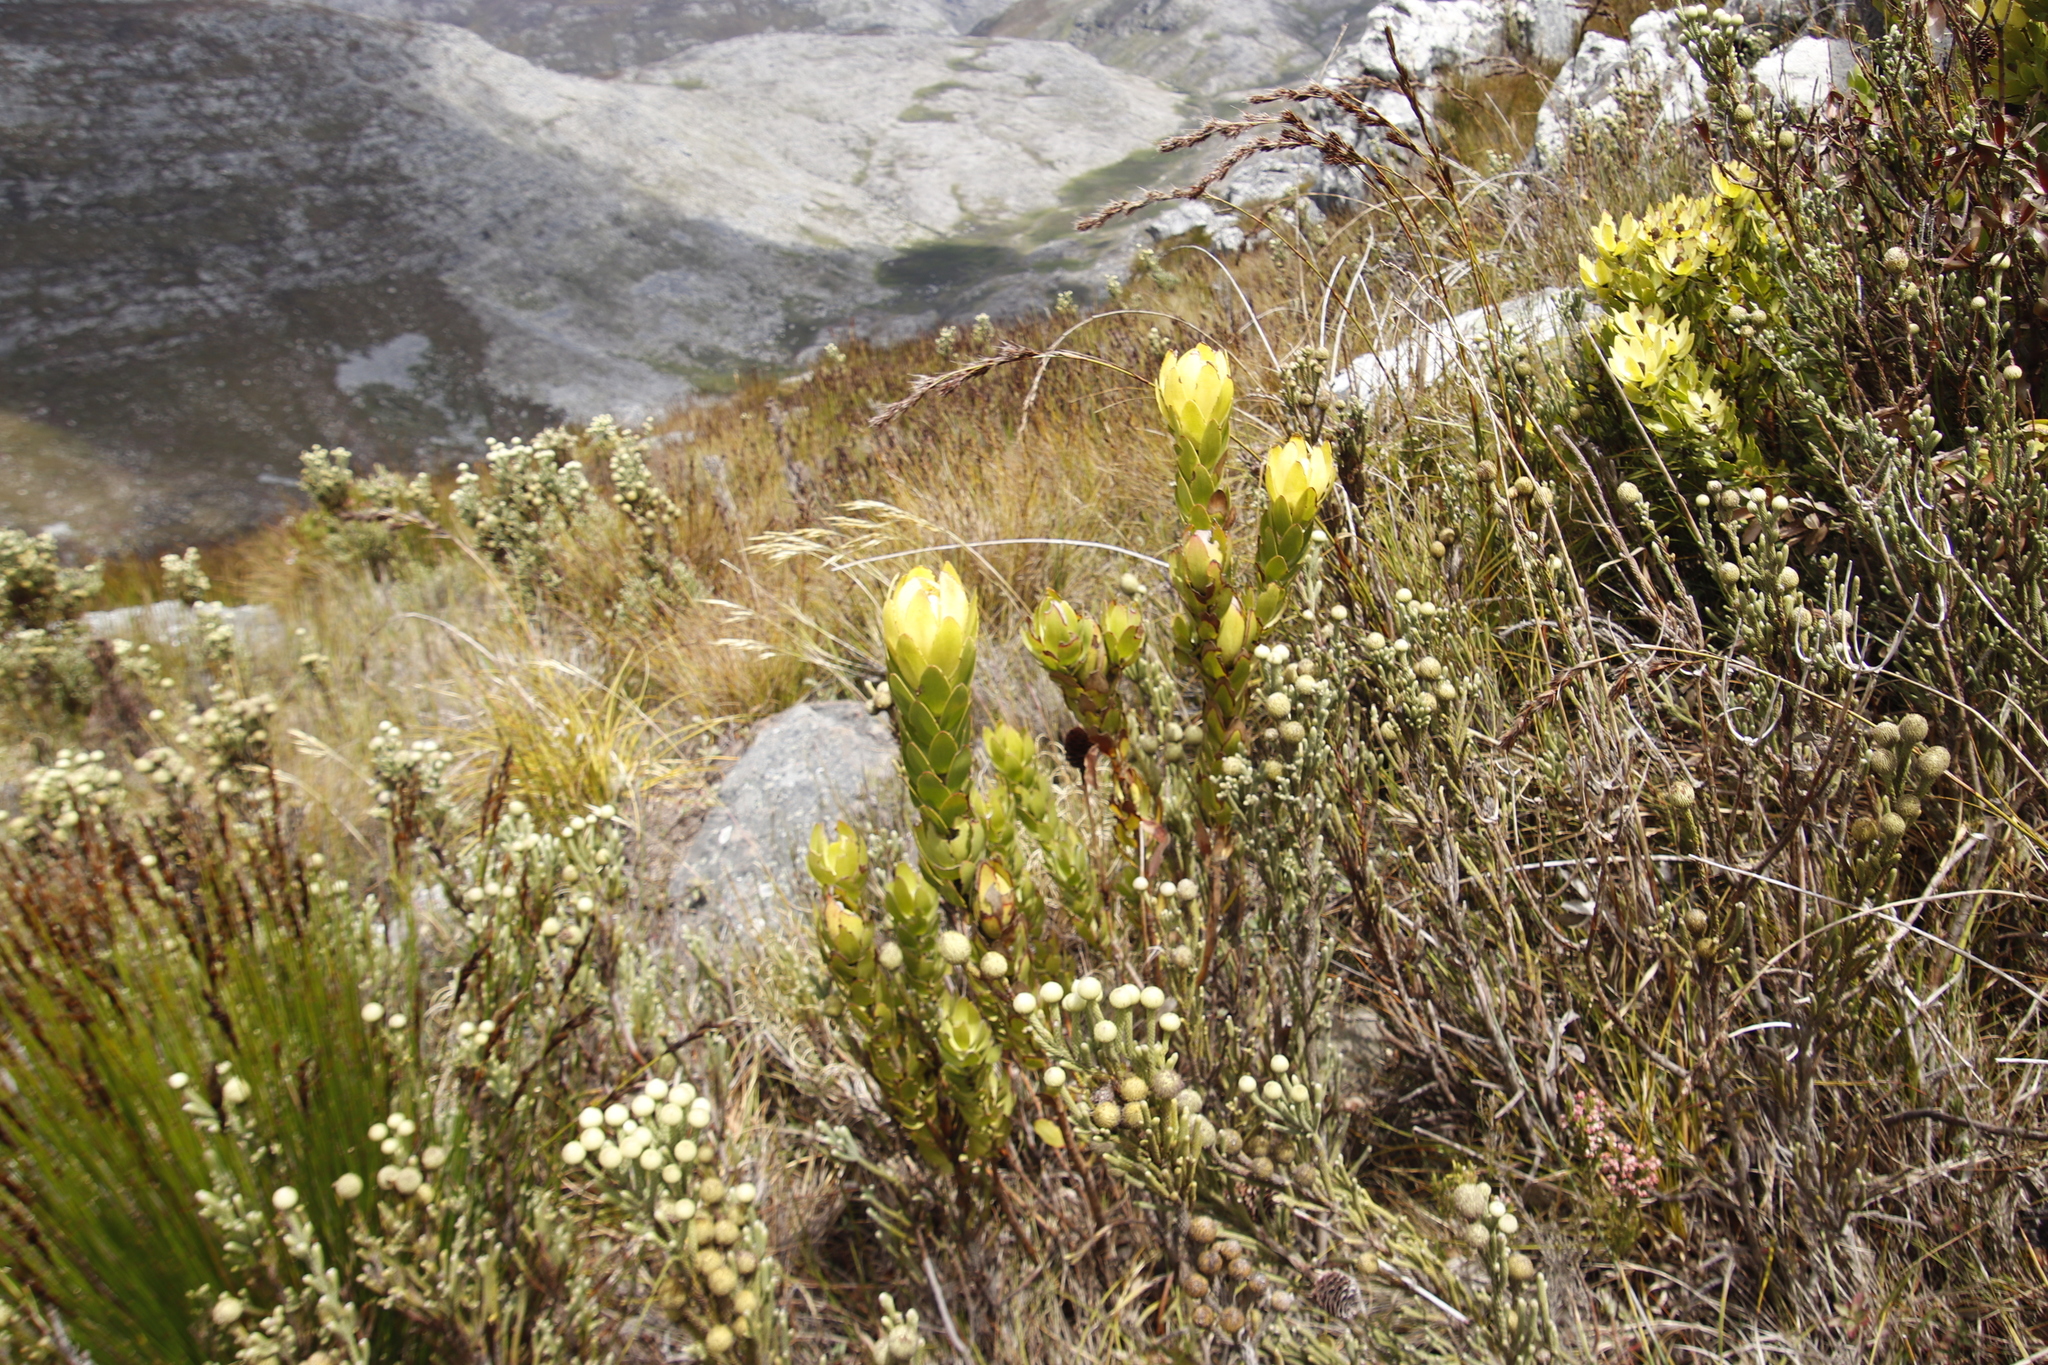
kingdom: Plantae
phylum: Tracheophyta
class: Magnoliopsida
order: Proteales
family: Proteaceae
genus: Leucadendron
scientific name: Leucadendron gandogeri
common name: Broad-leaf conebush
